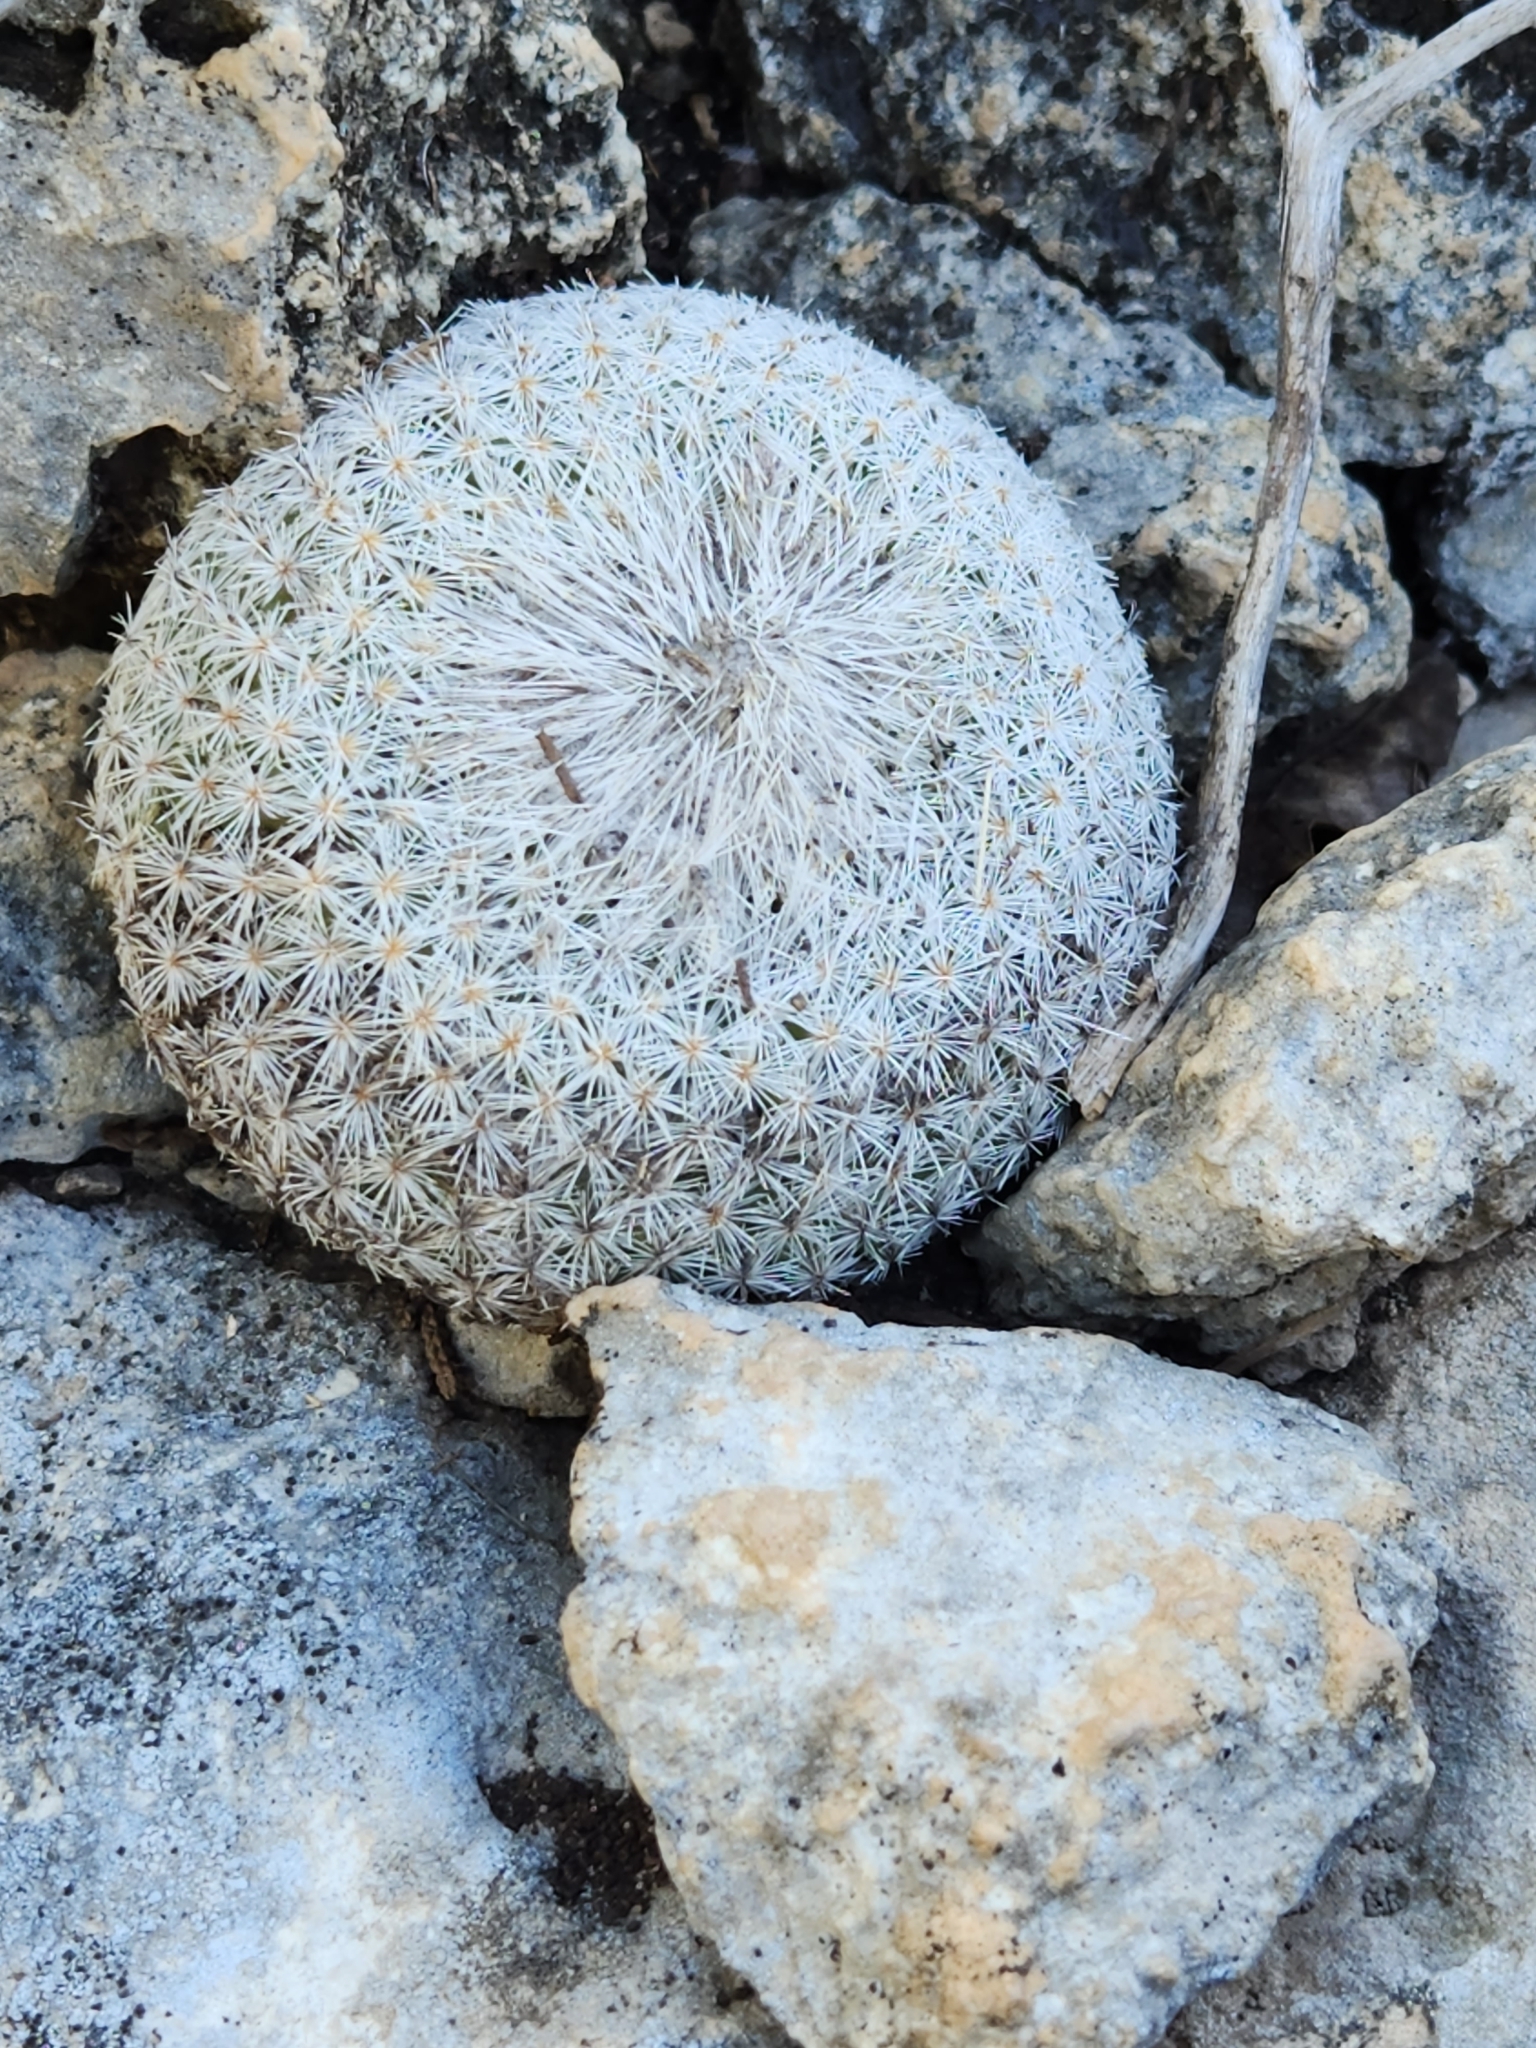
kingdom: Plantae
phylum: Tracheophyta
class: Magnoliopsida
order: Caryophyllales
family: Cactaceae
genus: Epithelantha
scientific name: Epithelantha micromeris
